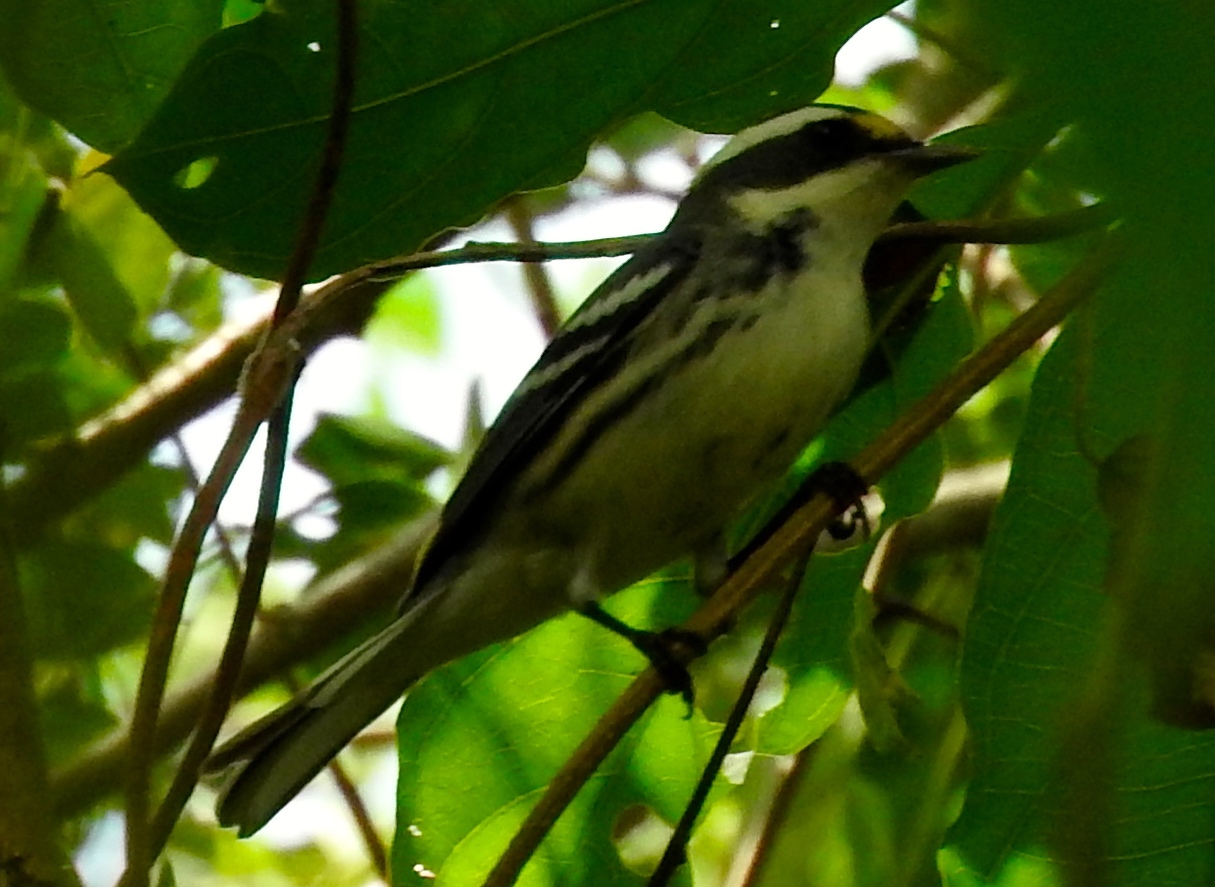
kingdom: Animalia
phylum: Chordata
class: Aves
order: Passeriformes
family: Parulidae
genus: Setophaga
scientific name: Setophaga nigrescens
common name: Black-throated gray warbler
